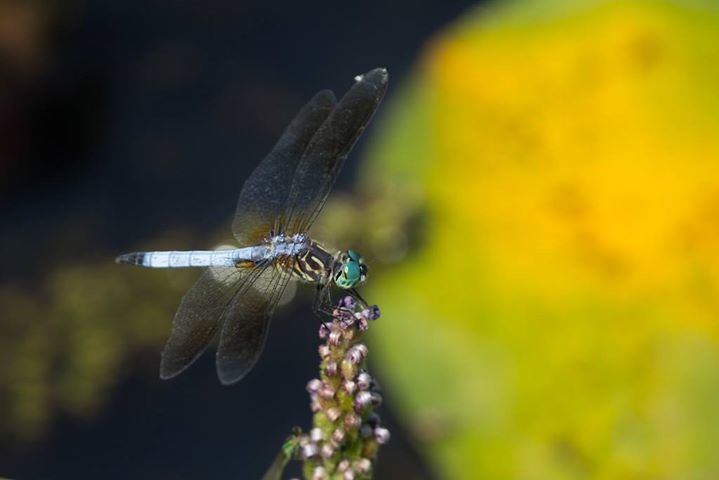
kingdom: Animalia
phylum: Arthropoda
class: Insecta
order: Odonata
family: Libellulidae
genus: Pachydiplax
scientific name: Pachydiplax longipennis
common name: Blue dasher
